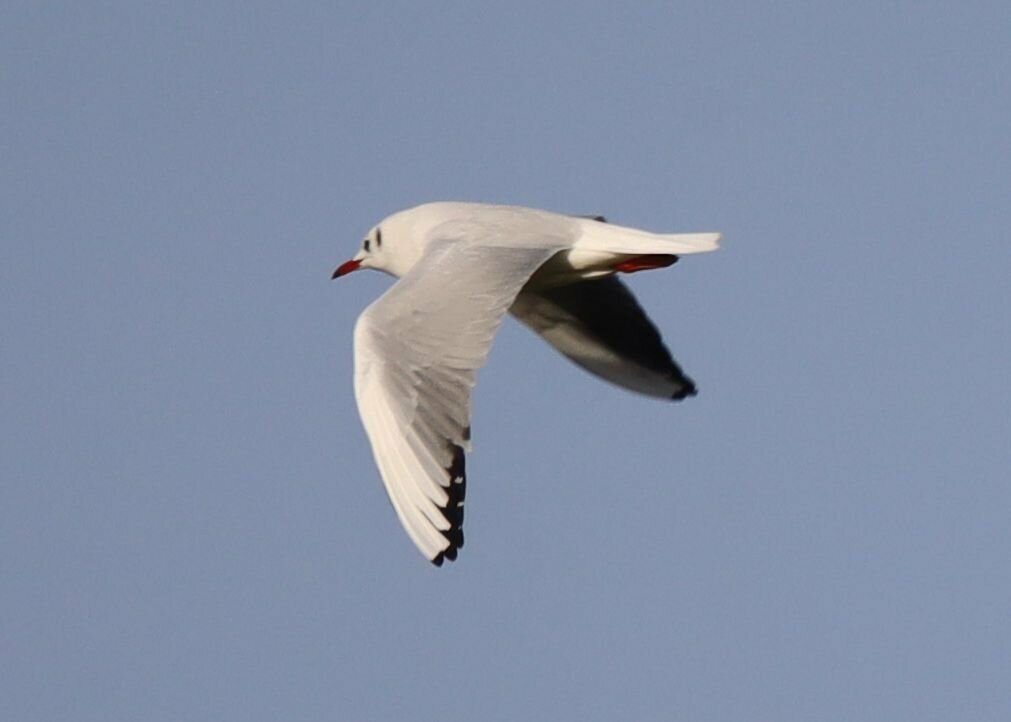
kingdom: Animalia
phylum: Chordata
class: Aves
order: Charadriiformes
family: Laridae
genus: Chroicocephalus
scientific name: Chroicocephalus ridibundus
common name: Black-headed gull
